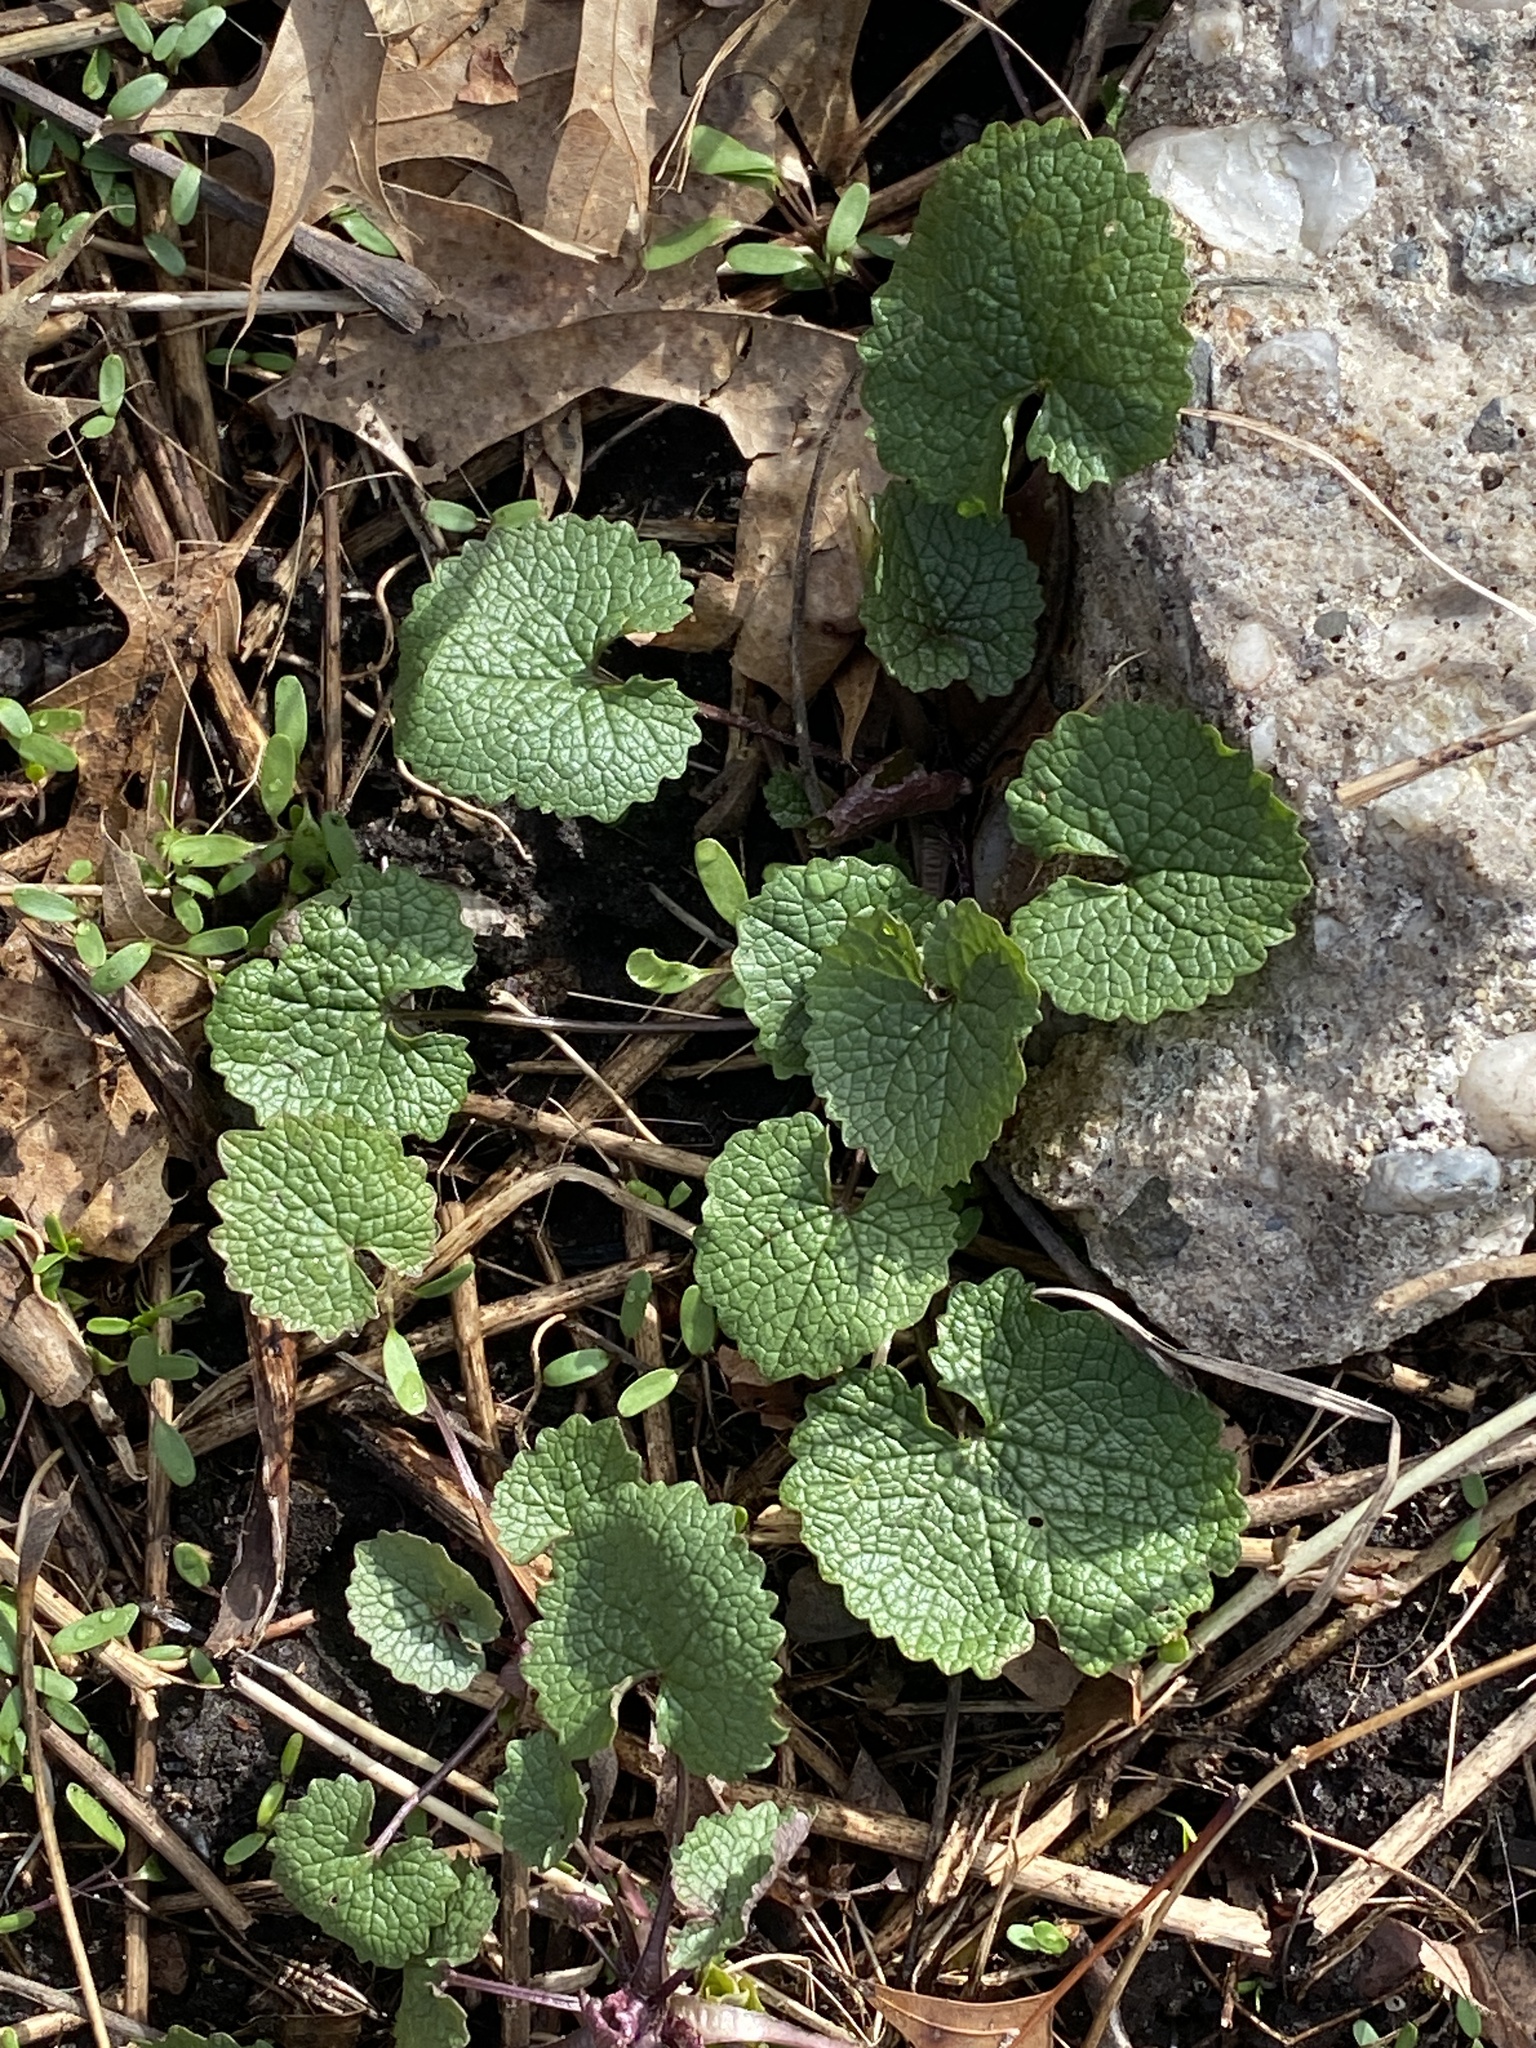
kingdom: Plantae
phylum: Tracheophyta
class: Magnoliopsida
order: Brassicales
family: Brassicaceae
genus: Alliaria
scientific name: Alliaria petiolata
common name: Garlic mustard
